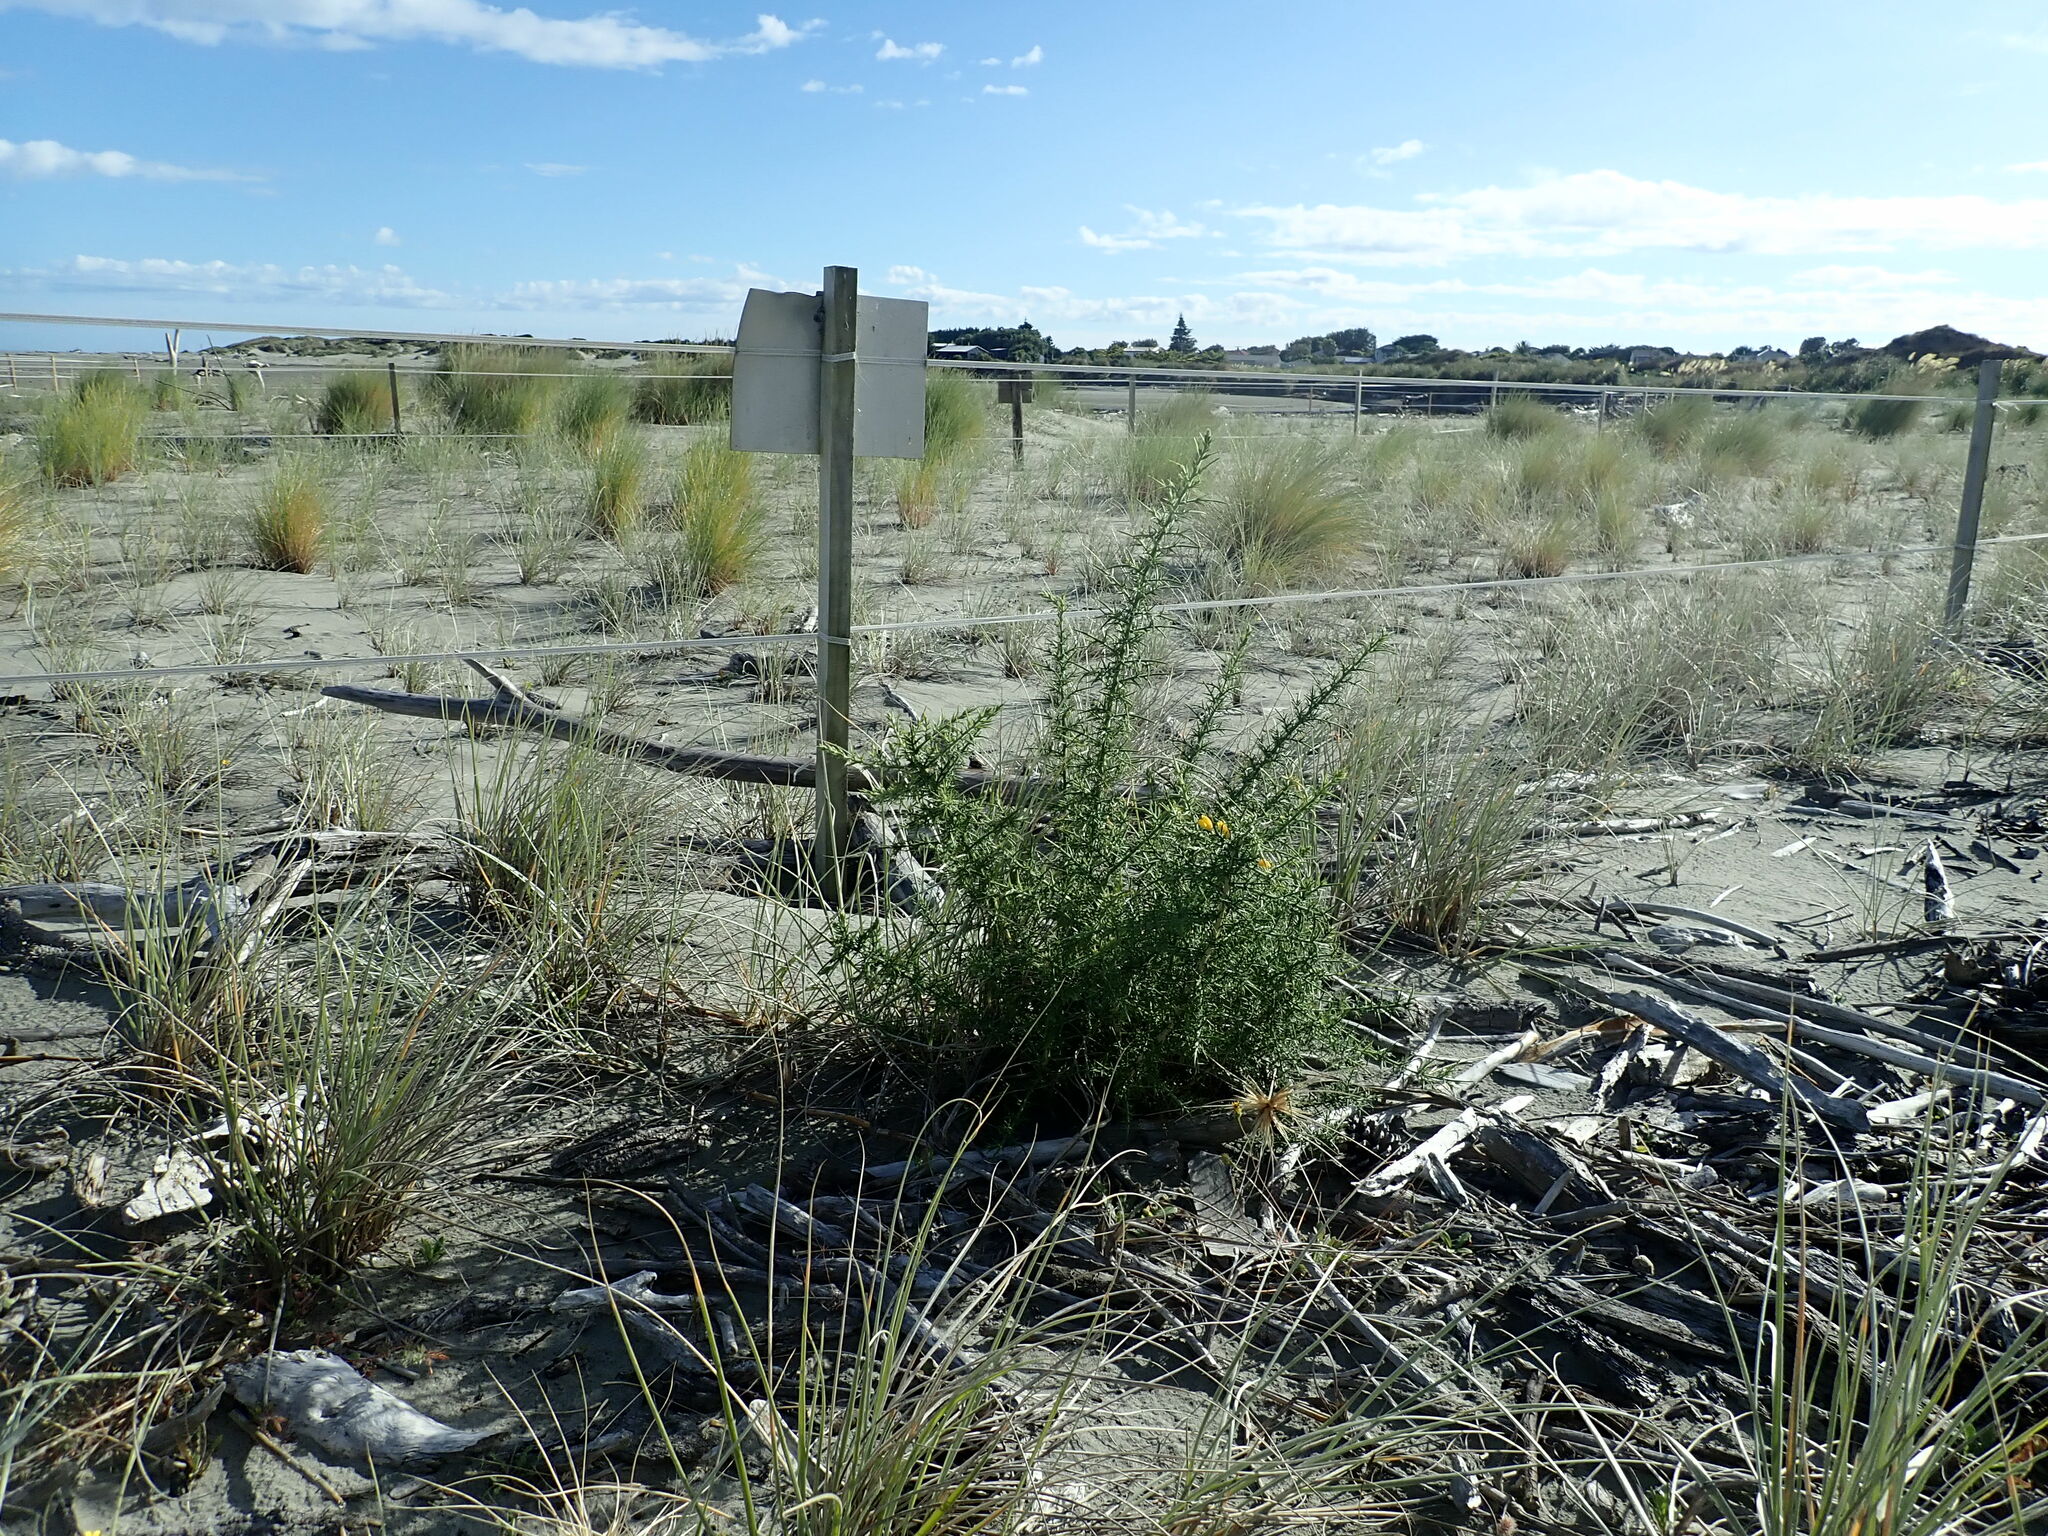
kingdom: Plantae
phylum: Tracheophyta
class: Magnoliopsida
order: Fabales
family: Fabaceae
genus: Ulex
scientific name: Ulex europaeus
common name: Common gorse
